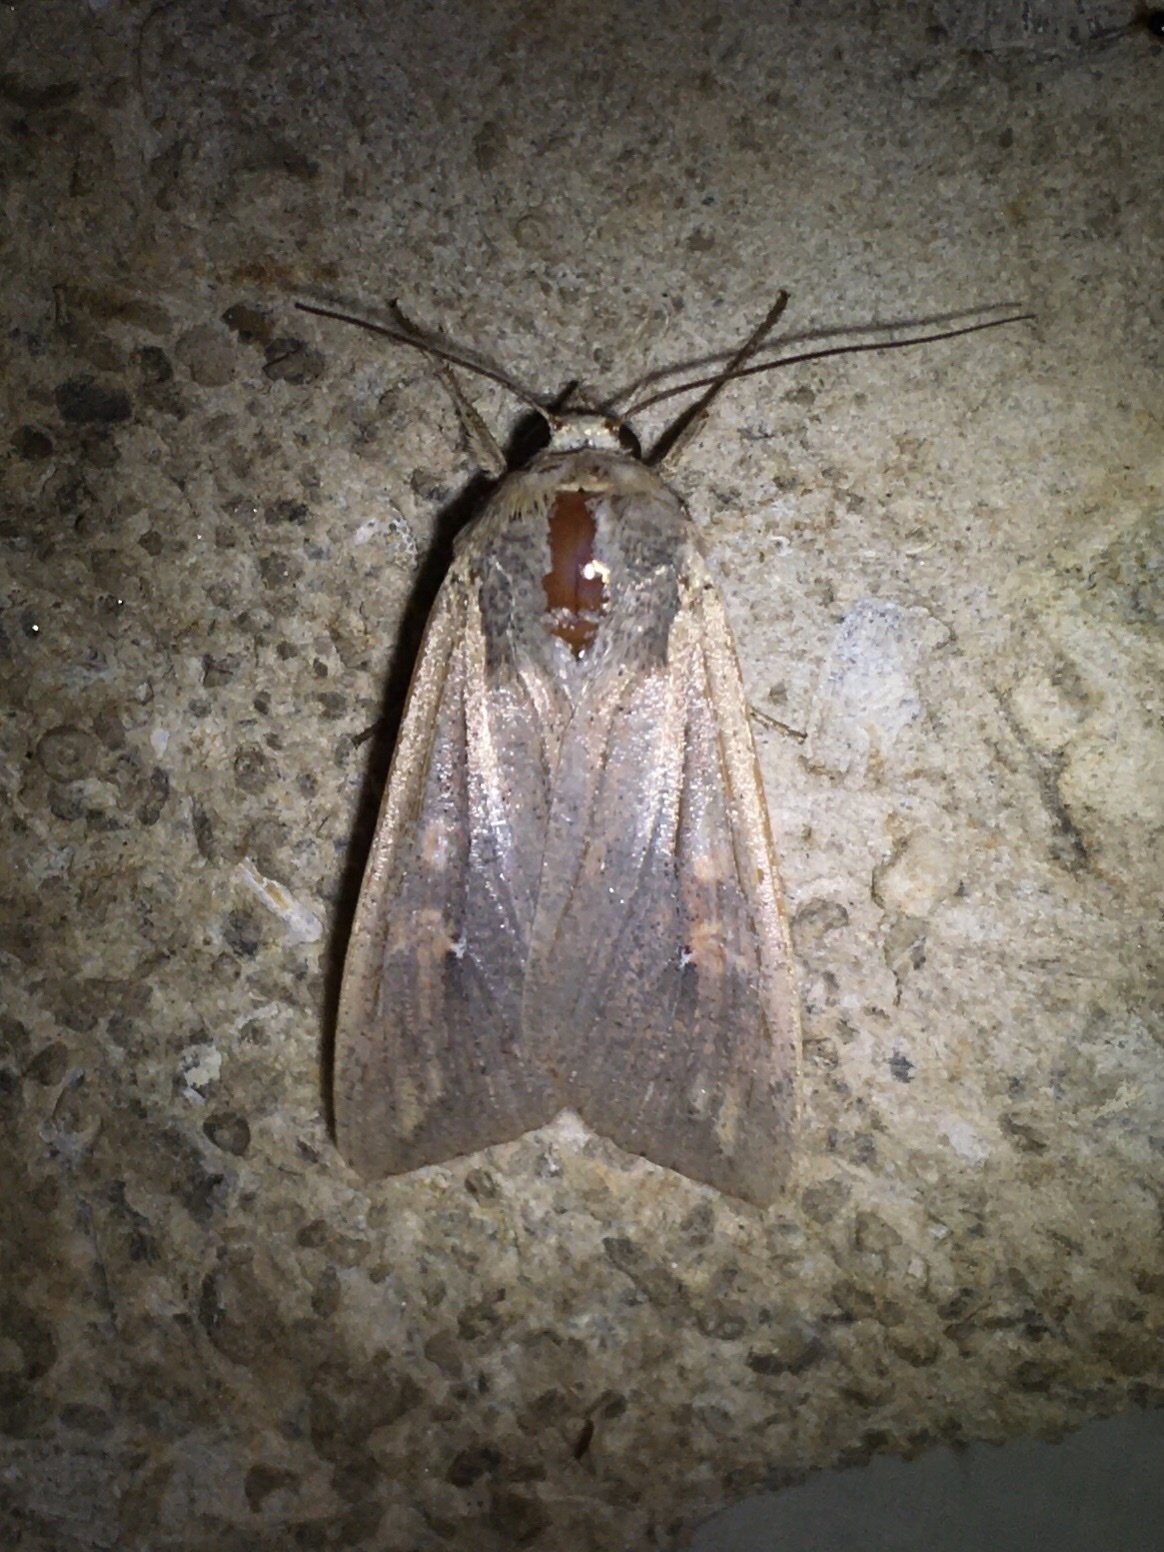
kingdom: Animalia
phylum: Arthropoda
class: Insecta
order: Lepidoptera
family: Noctuidae
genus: Mythimna
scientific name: Mythimna unipuncta
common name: White-speck
